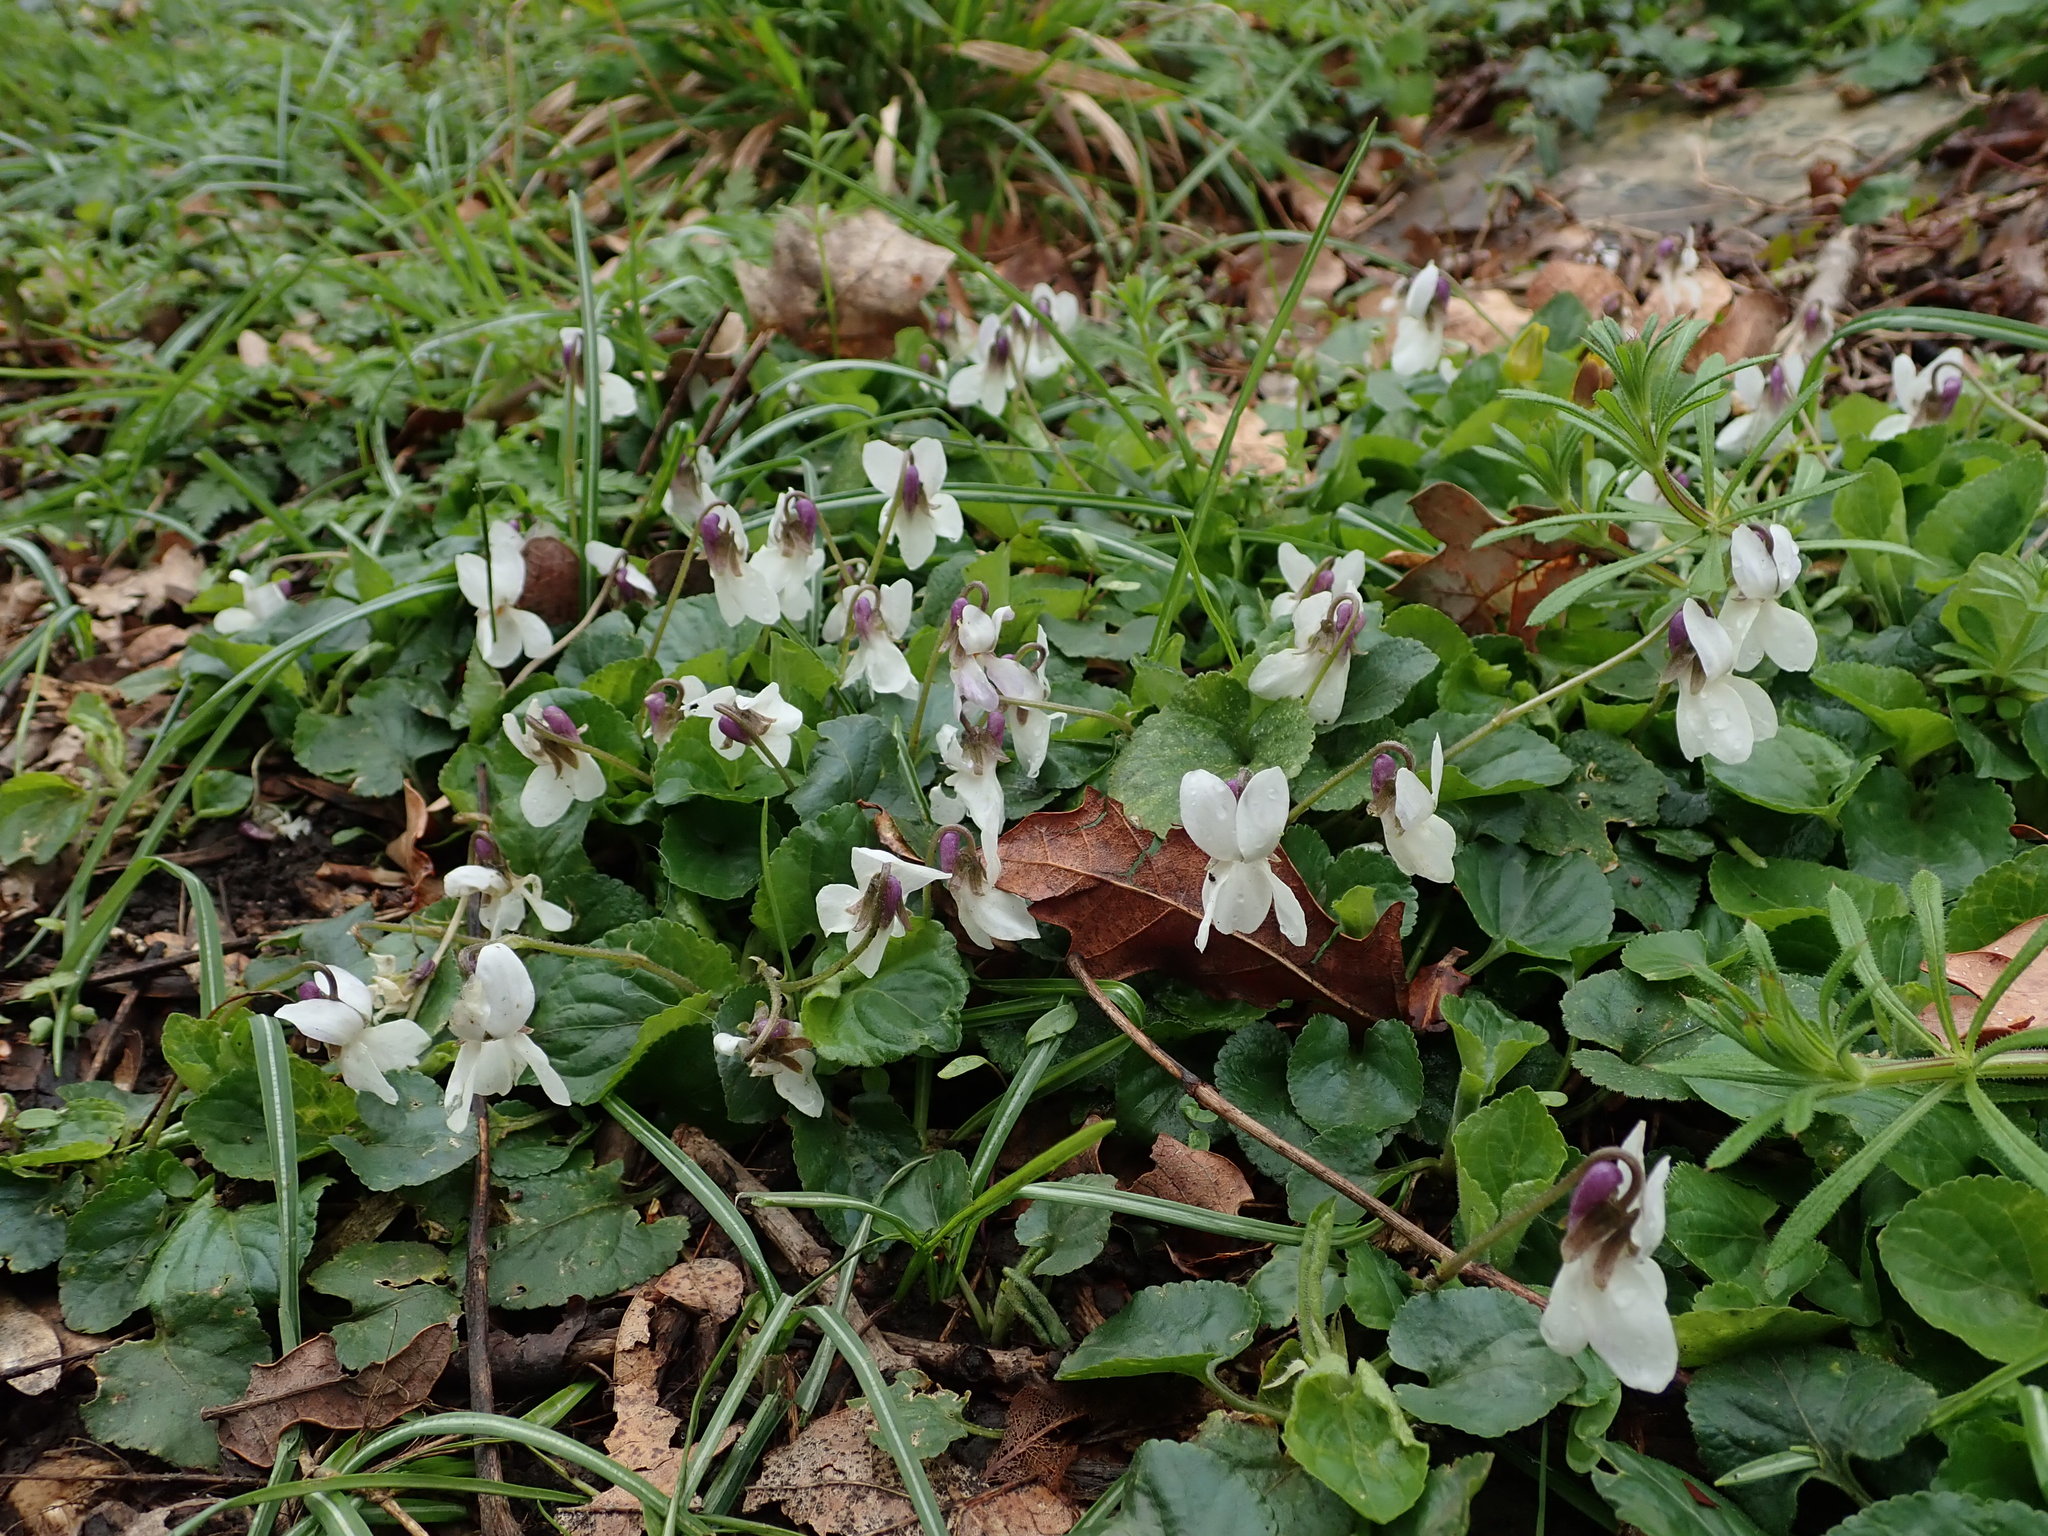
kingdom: Plantae
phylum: Tracheophyta
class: Magnoliopsida
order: Malpighiales
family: Violaceae
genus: Viola
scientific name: Viola odorata
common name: Sweet violet
